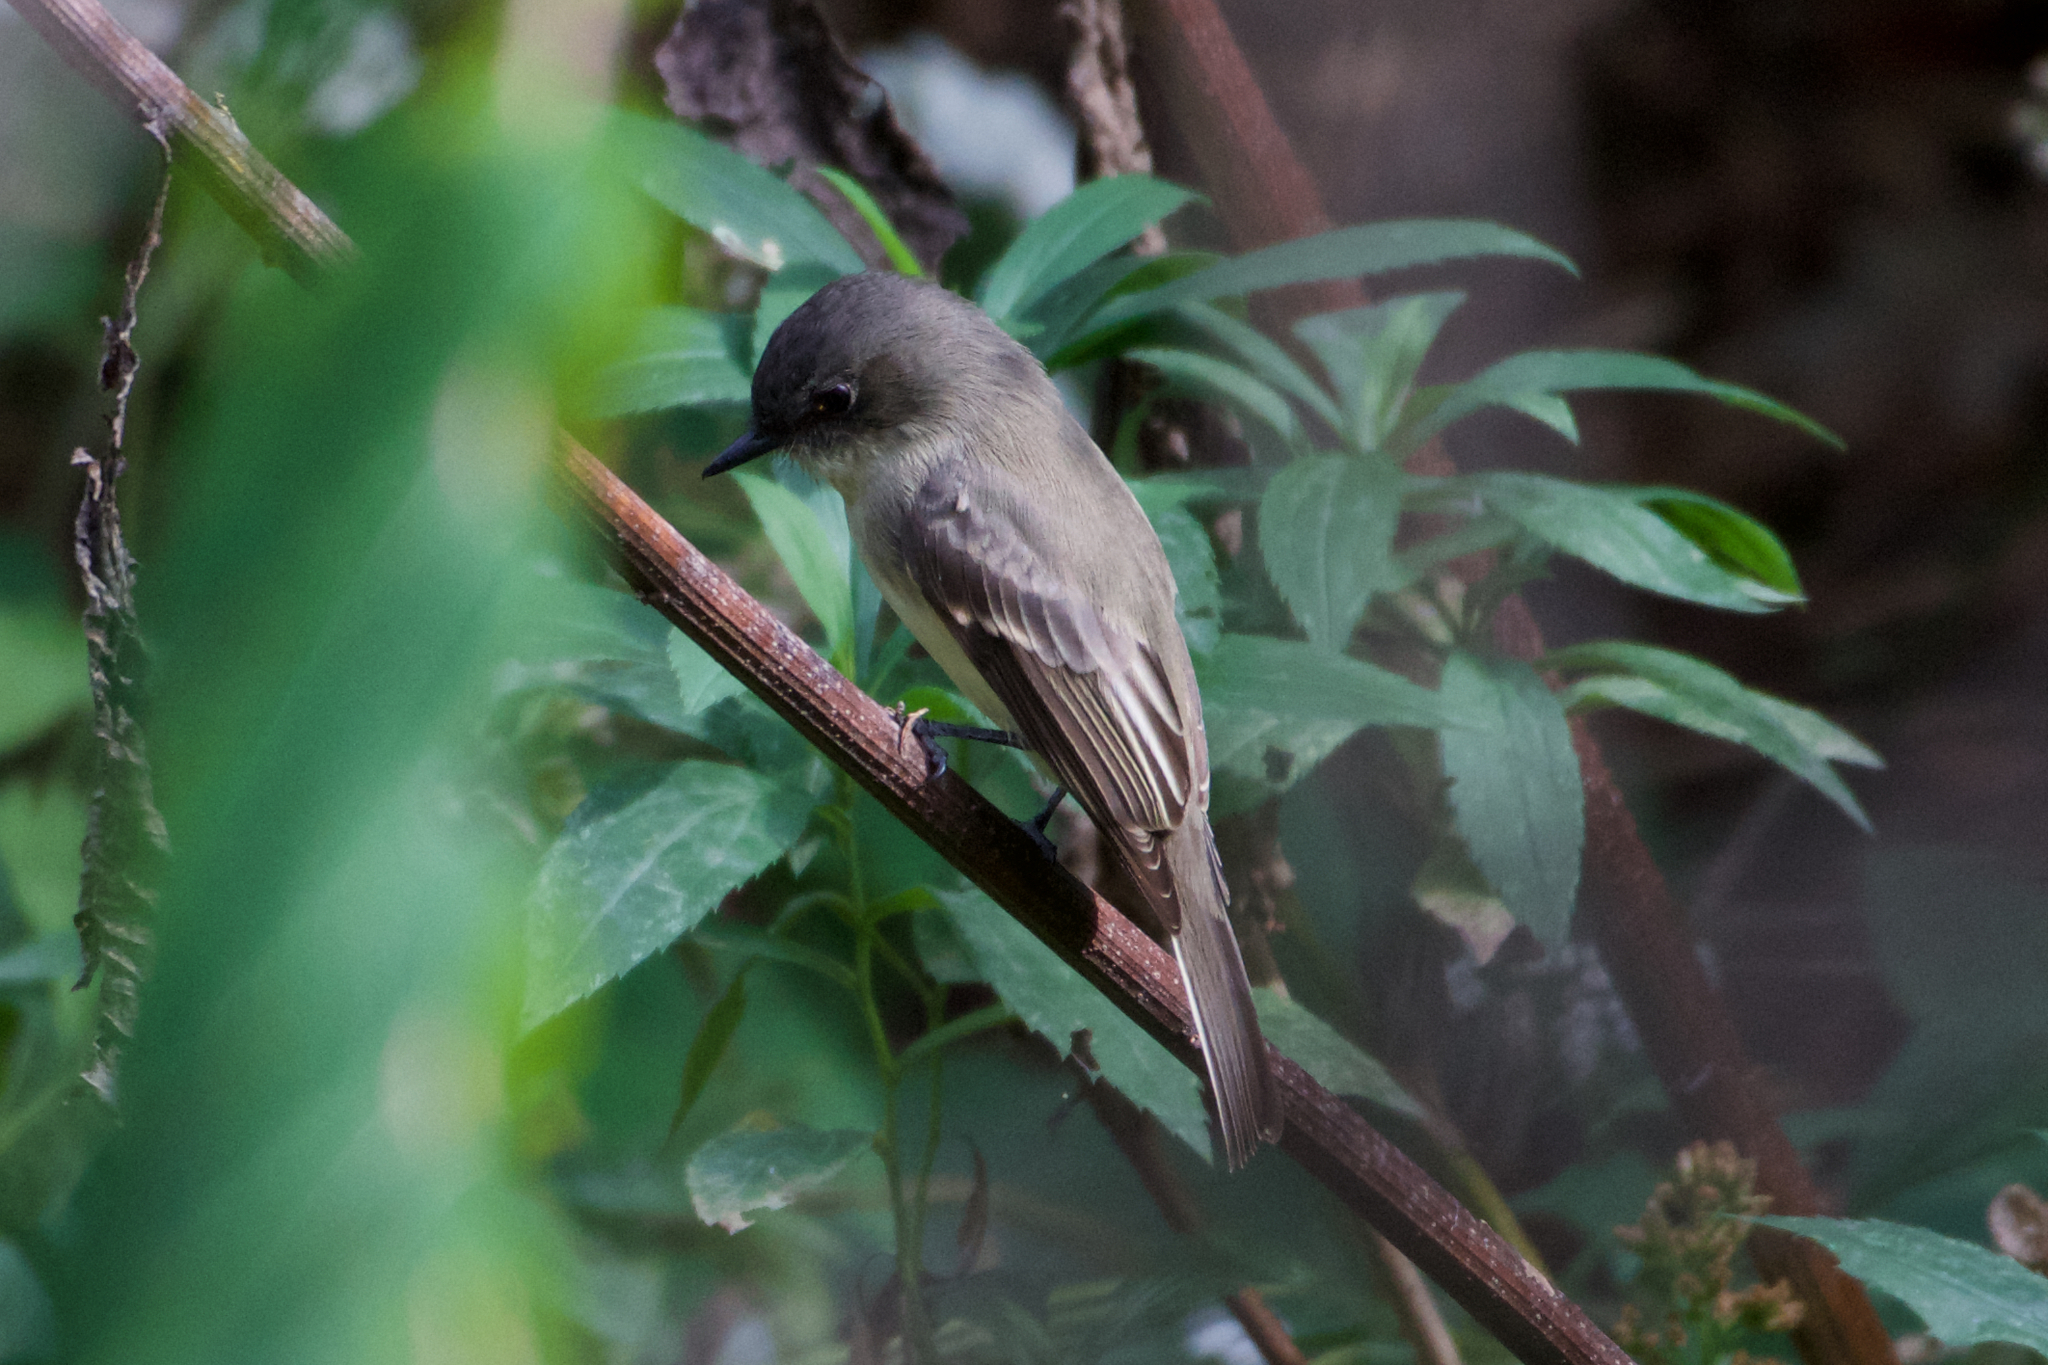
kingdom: Animalia
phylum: Chordata
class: Aves
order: Passeriformes
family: Tyrannidae
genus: Sayornis
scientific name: Sayornis phoebe
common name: Eastern phoebe
